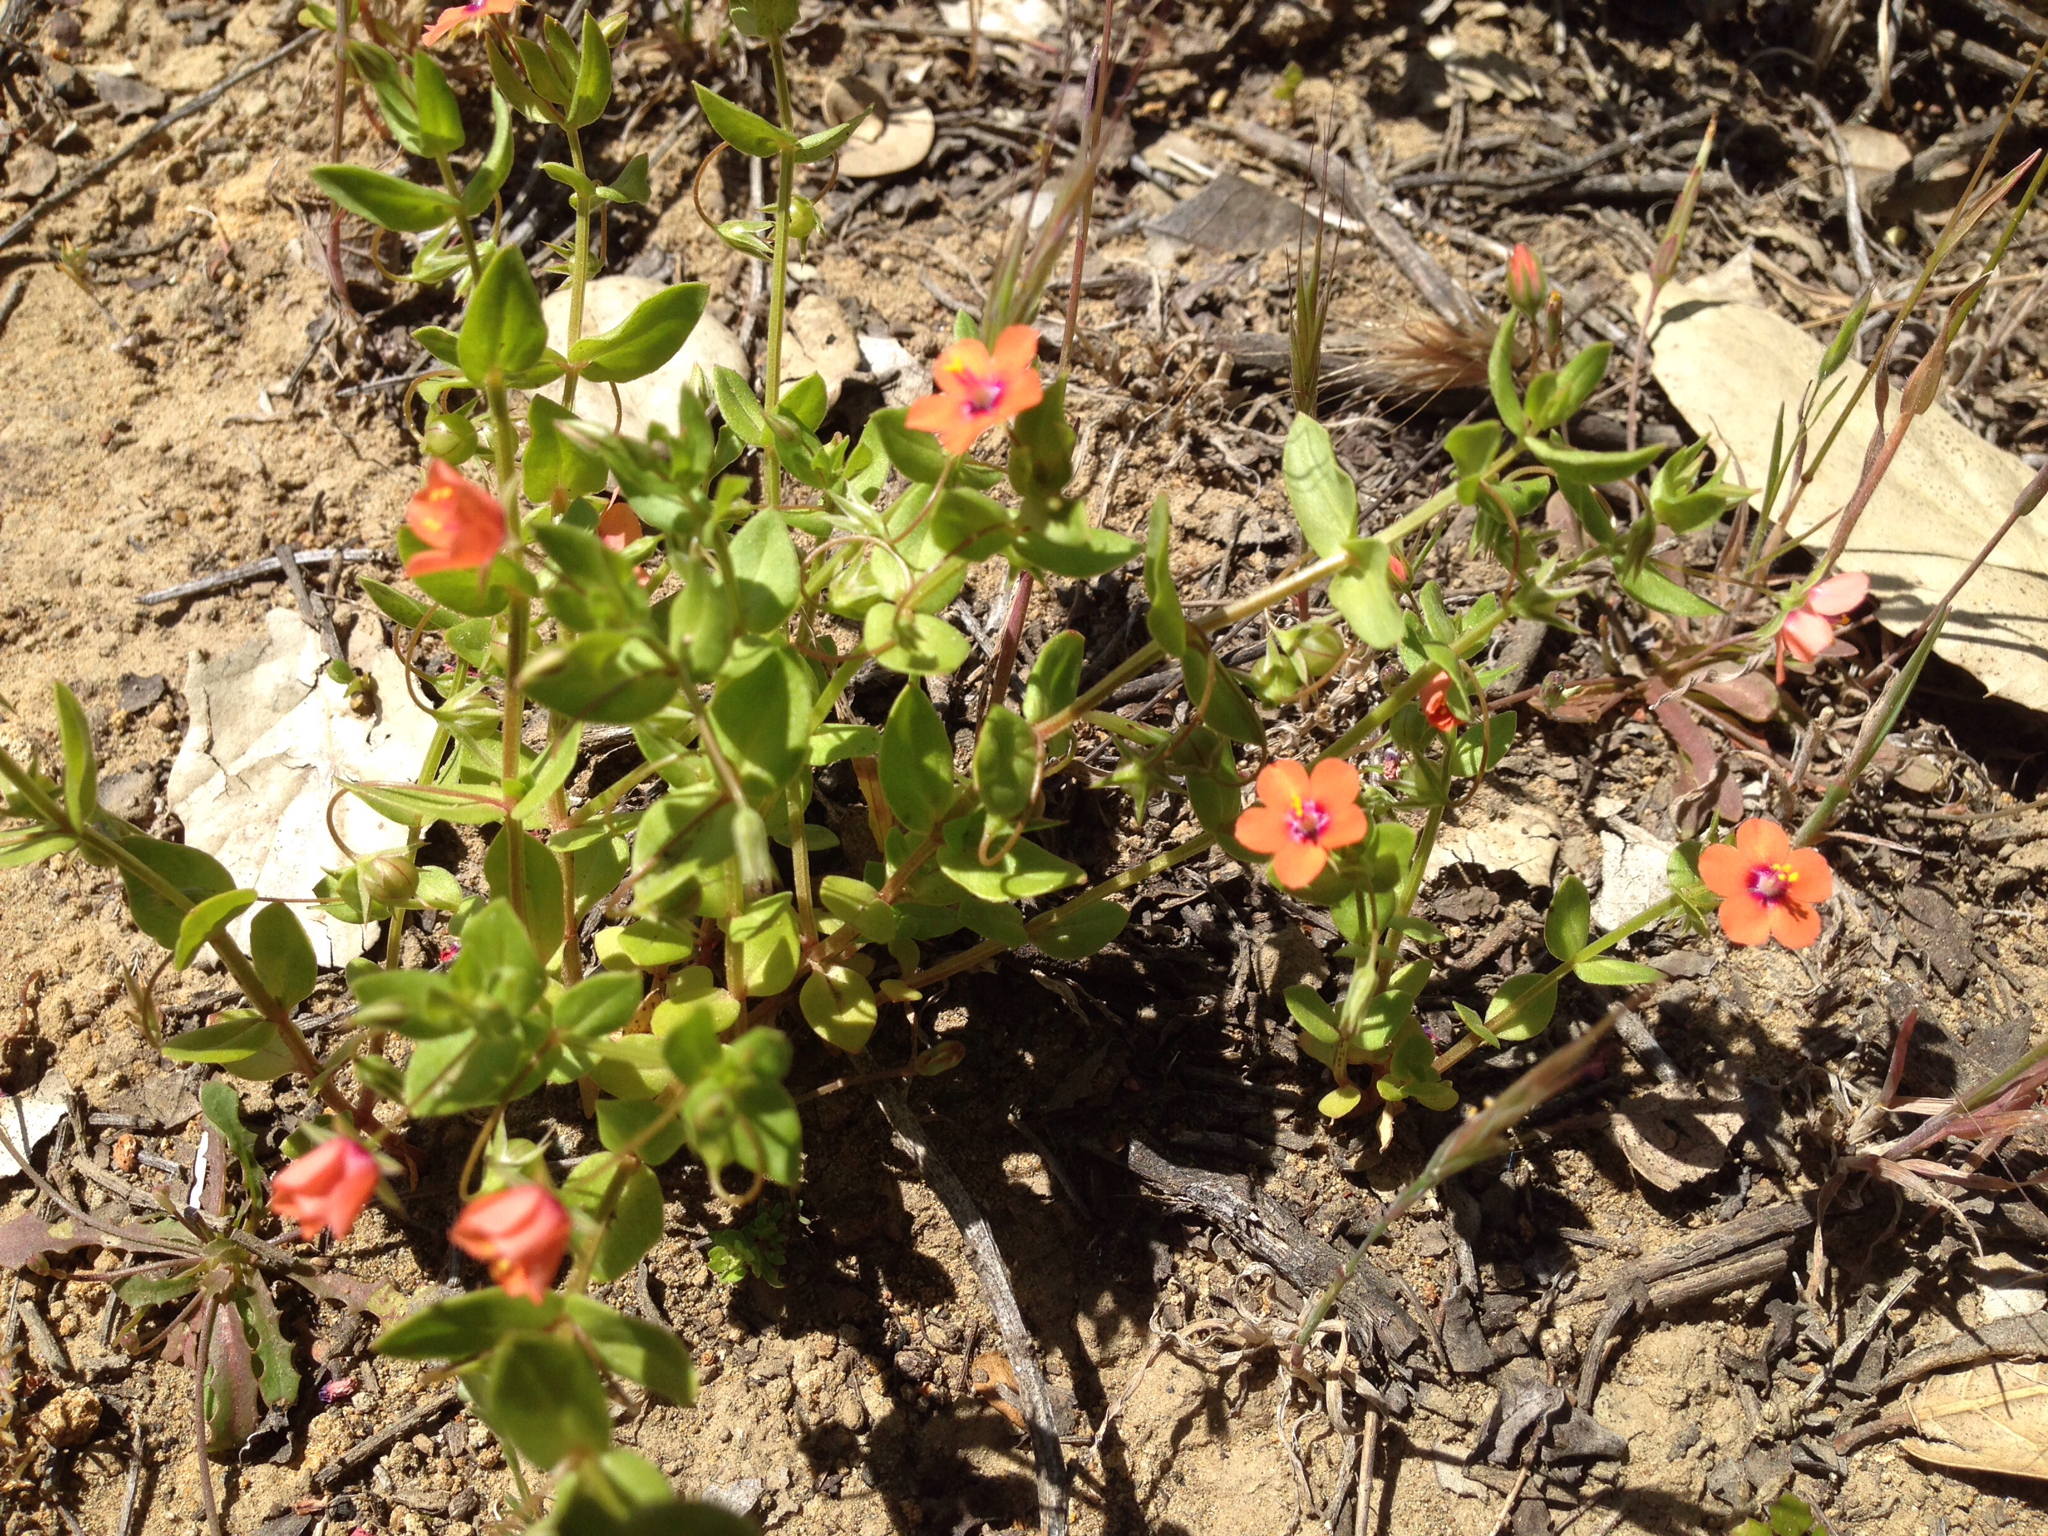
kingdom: Plantae
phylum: Tracheophyta
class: Magnoliopsida
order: Ericales
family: Primulaceae
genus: Lysimachia
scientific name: Lysimachia arvensis
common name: Scarlet pimpernel
